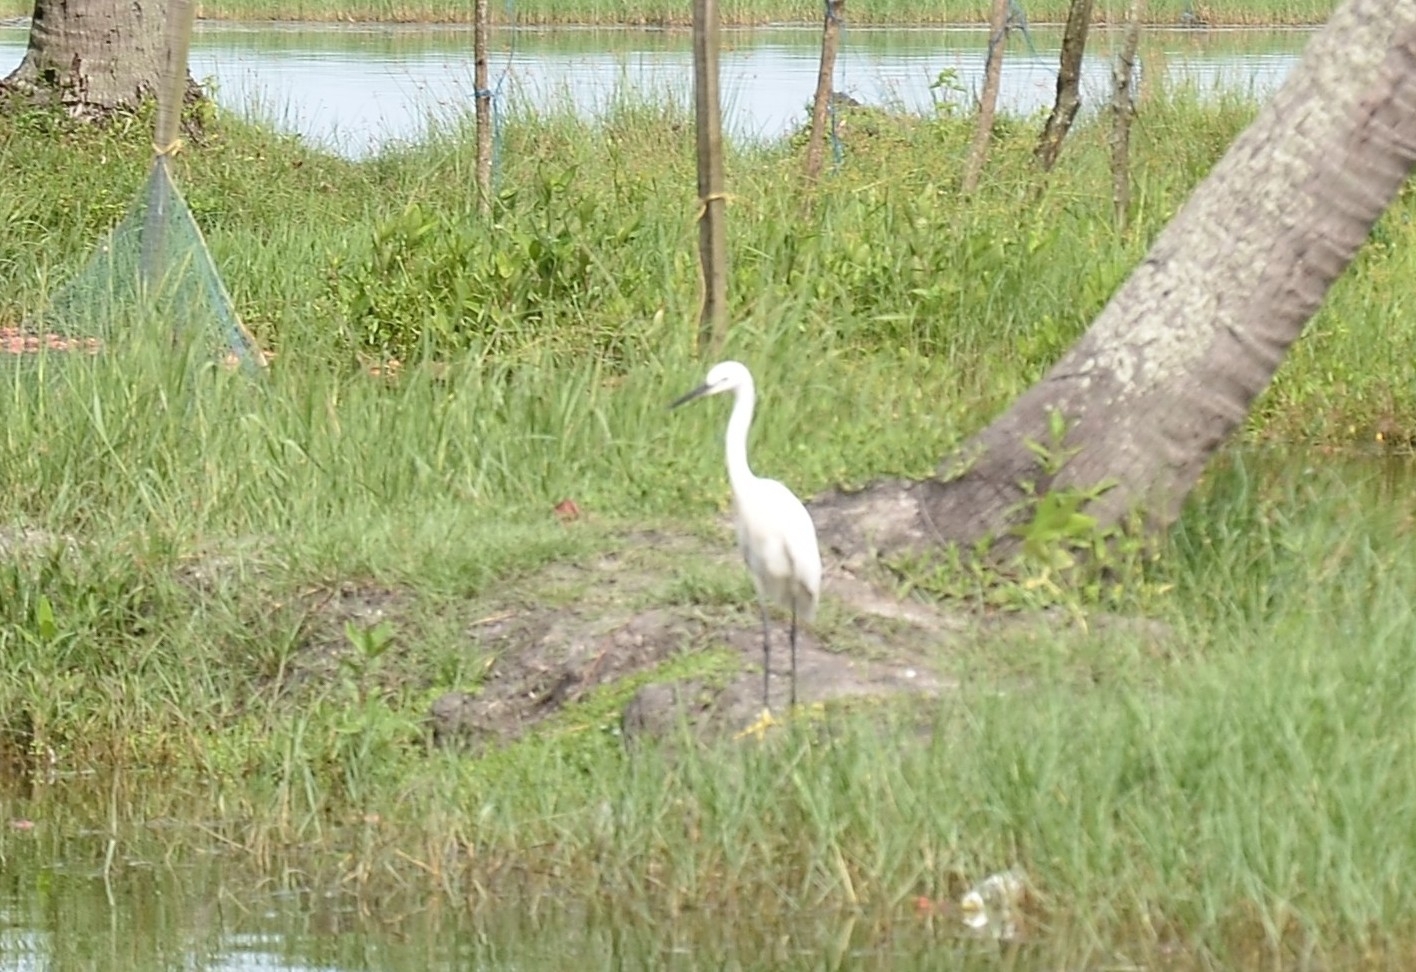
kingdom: Animalia
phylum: Chordata
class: Aves
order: Pelecaniformes
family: Ardeidae
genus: Egretta
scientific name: Egretta garzetta
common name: Little egret
